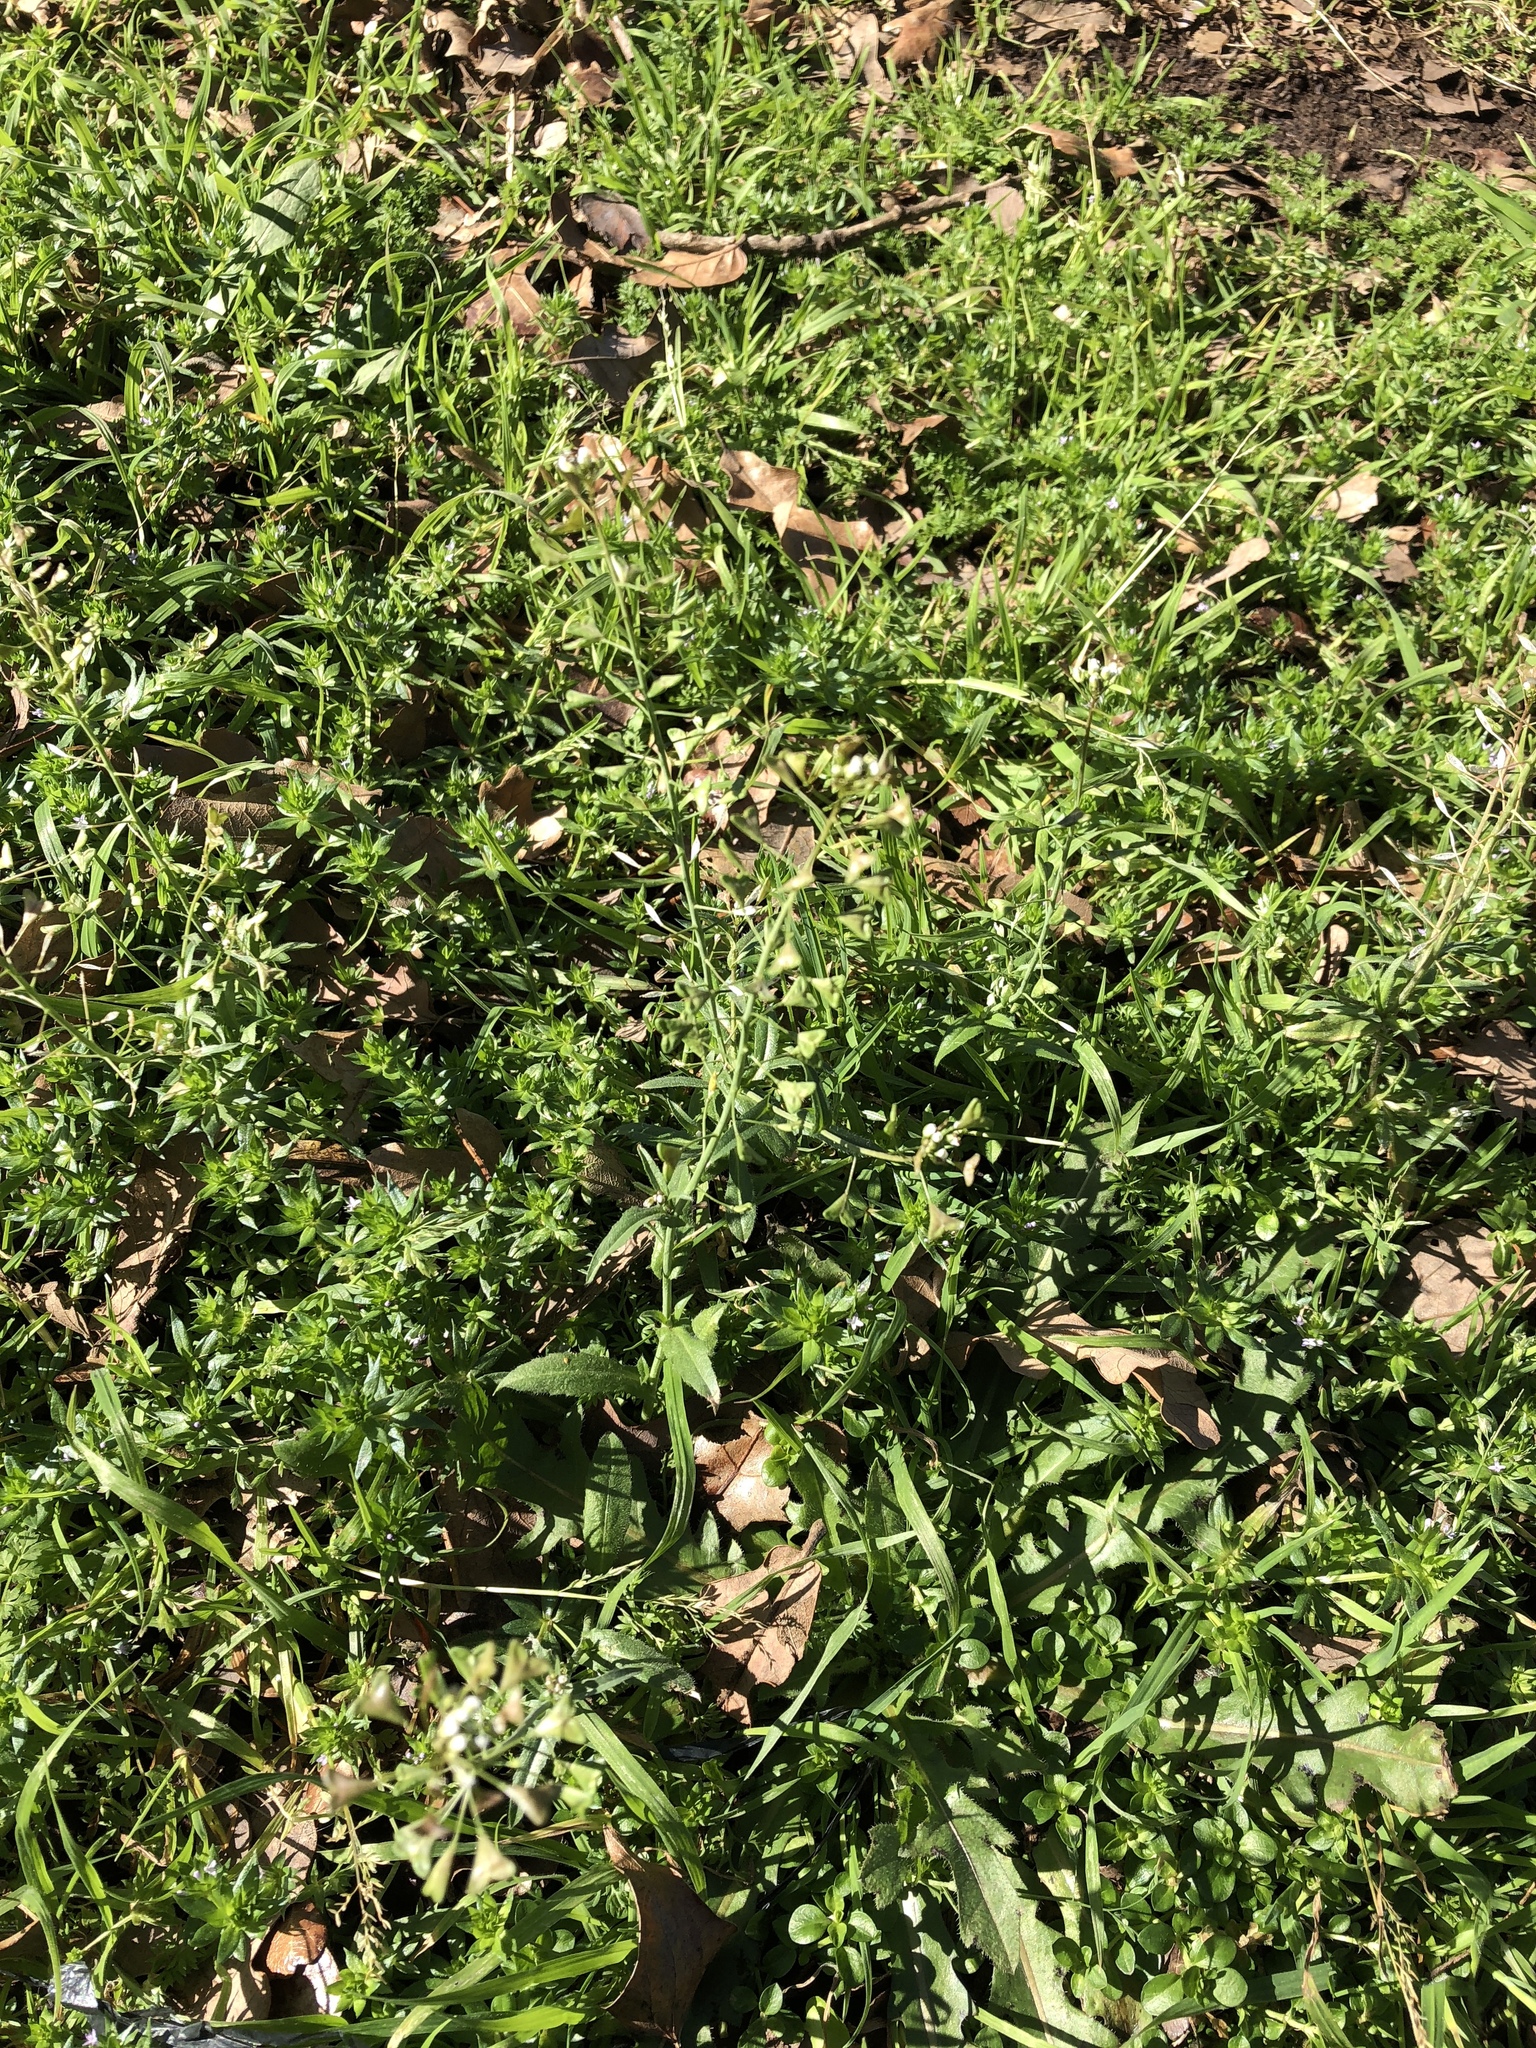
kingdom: Plantae
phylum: Tracheophyta
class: Magnoliopsida
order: Brassicales
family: Brassicaceae
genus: Capsella
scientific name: Capsella bursa-pastoris
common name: Shepherd's purse
